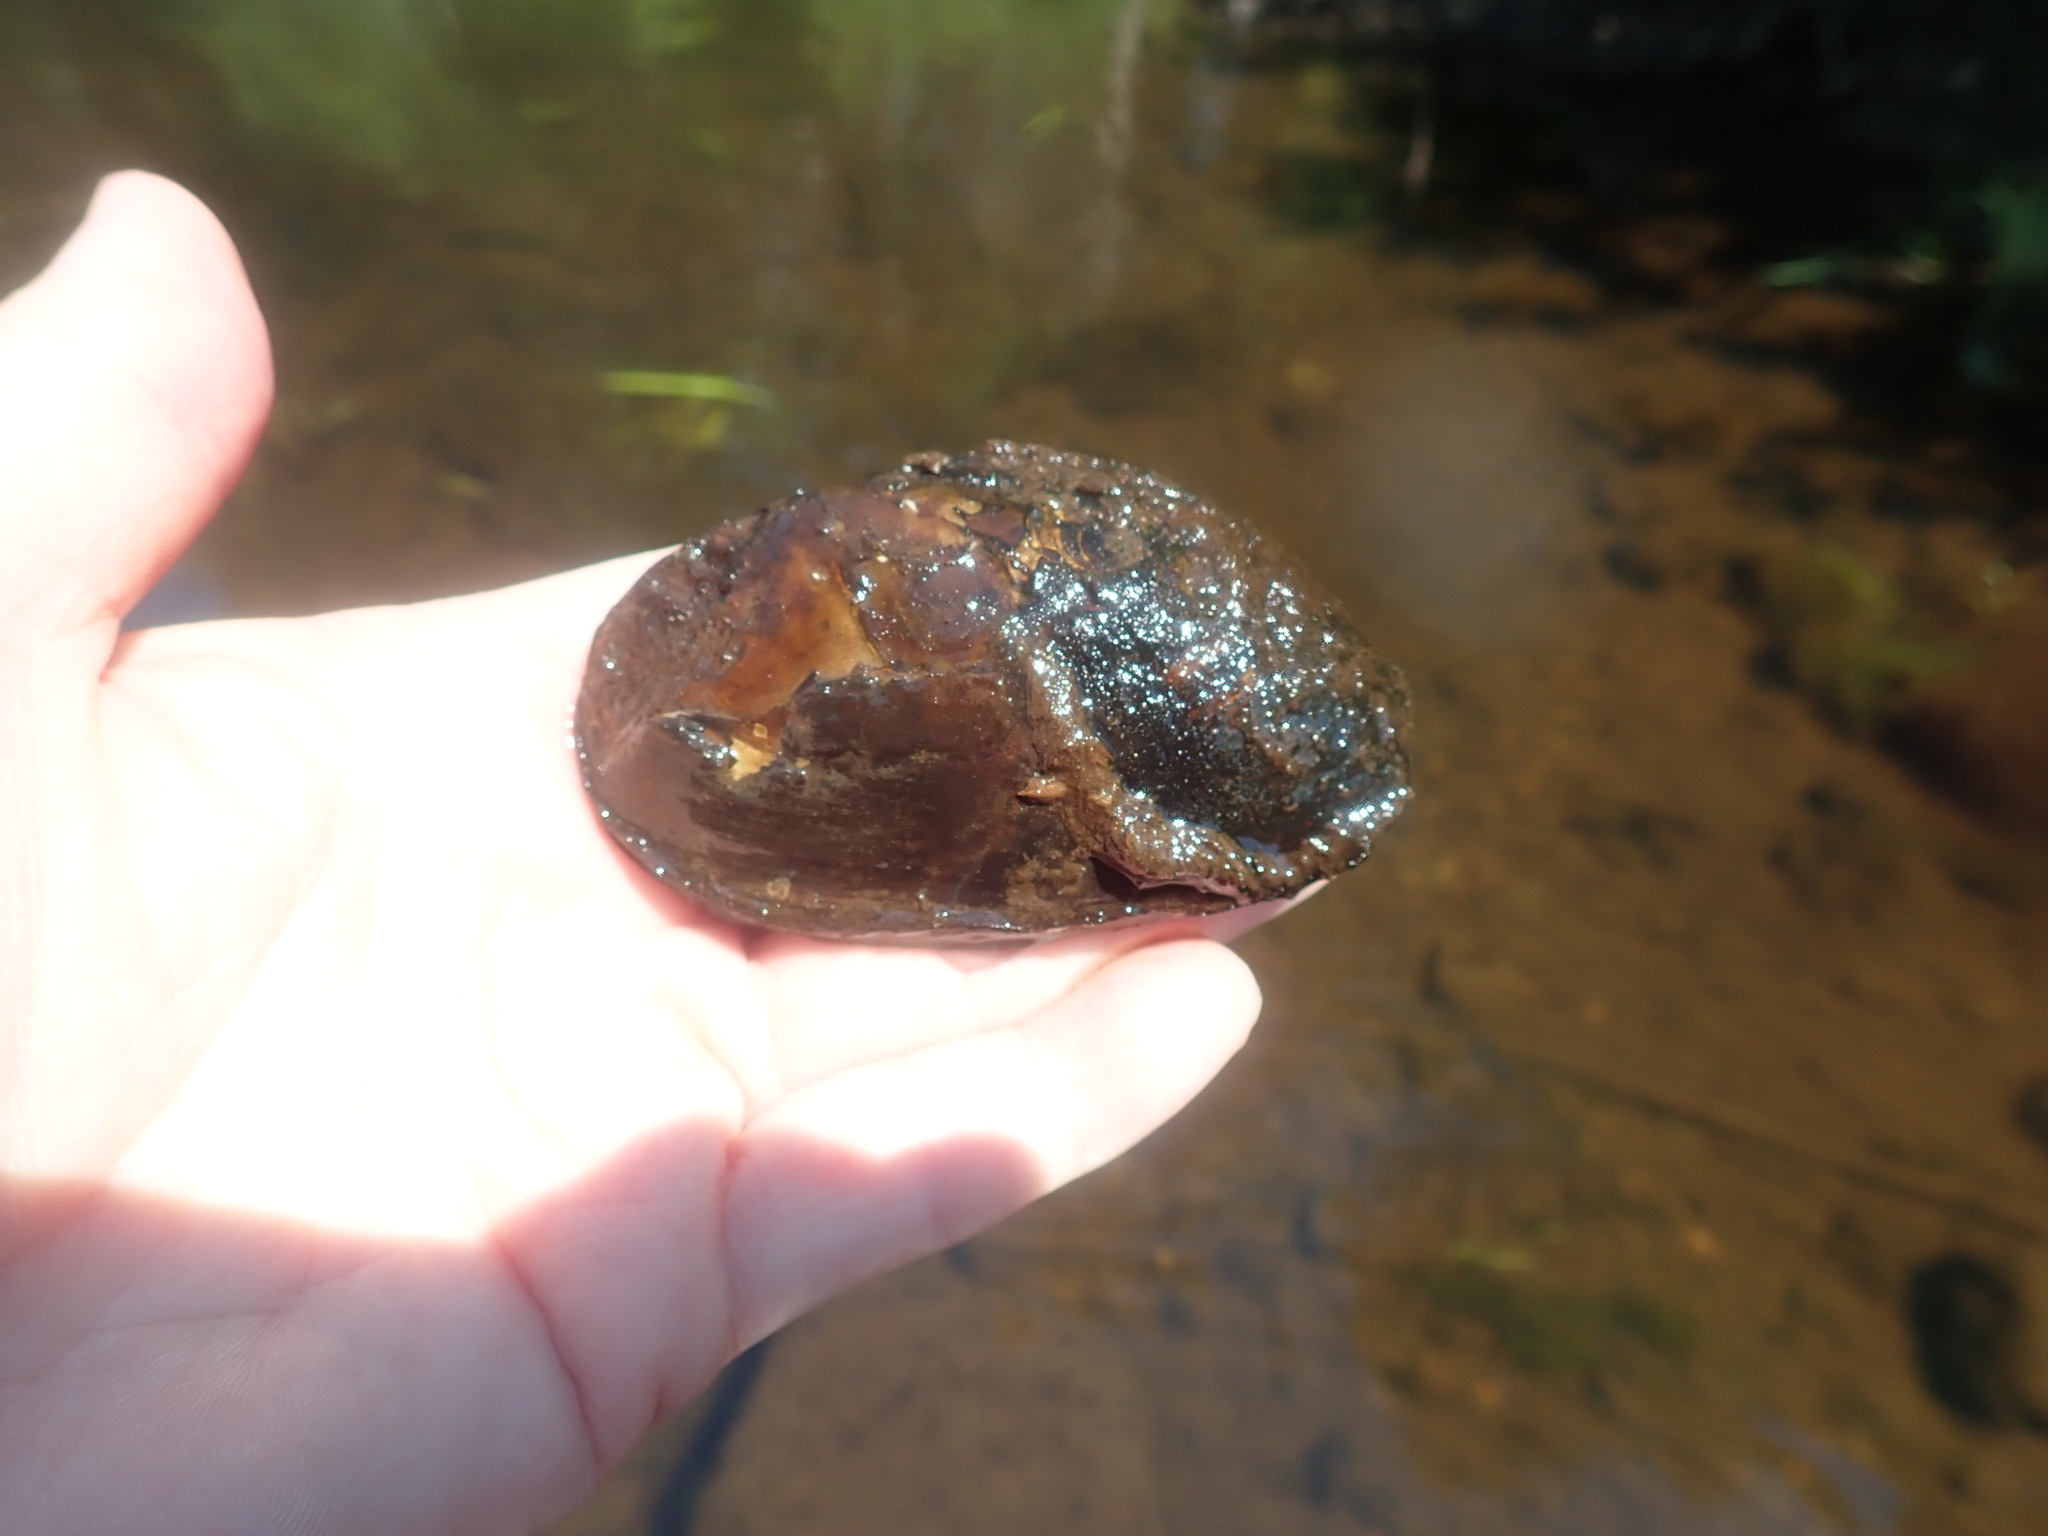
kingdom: Animalia
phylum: Mollusca
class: Bivalvia
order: Unionida
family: Unionidae
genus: Elliptio
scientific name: Elliptio complanata
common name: Eastern elliptio
